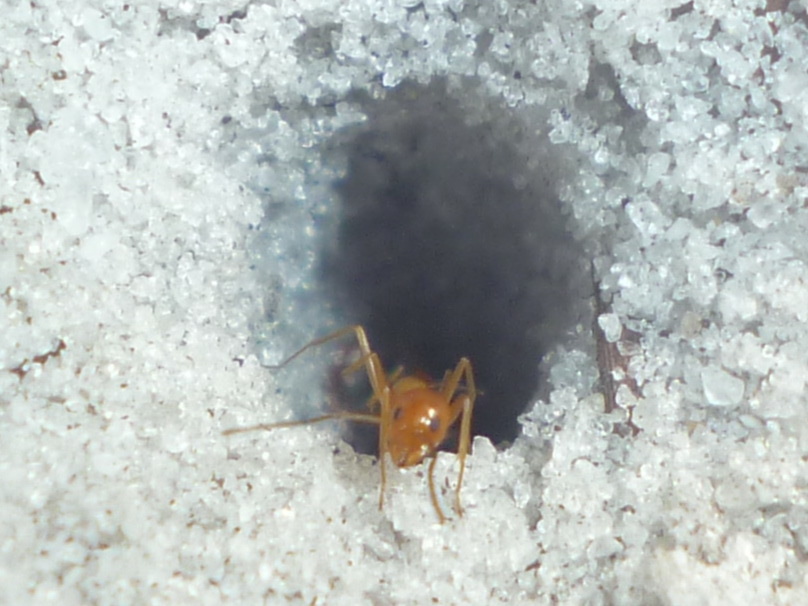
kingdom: Animalia
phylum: Arthropoda
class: Insecta
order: Hymenoptera
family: Formicidae
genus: Dorymyrmex
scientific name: Dorymyrmex bureni
